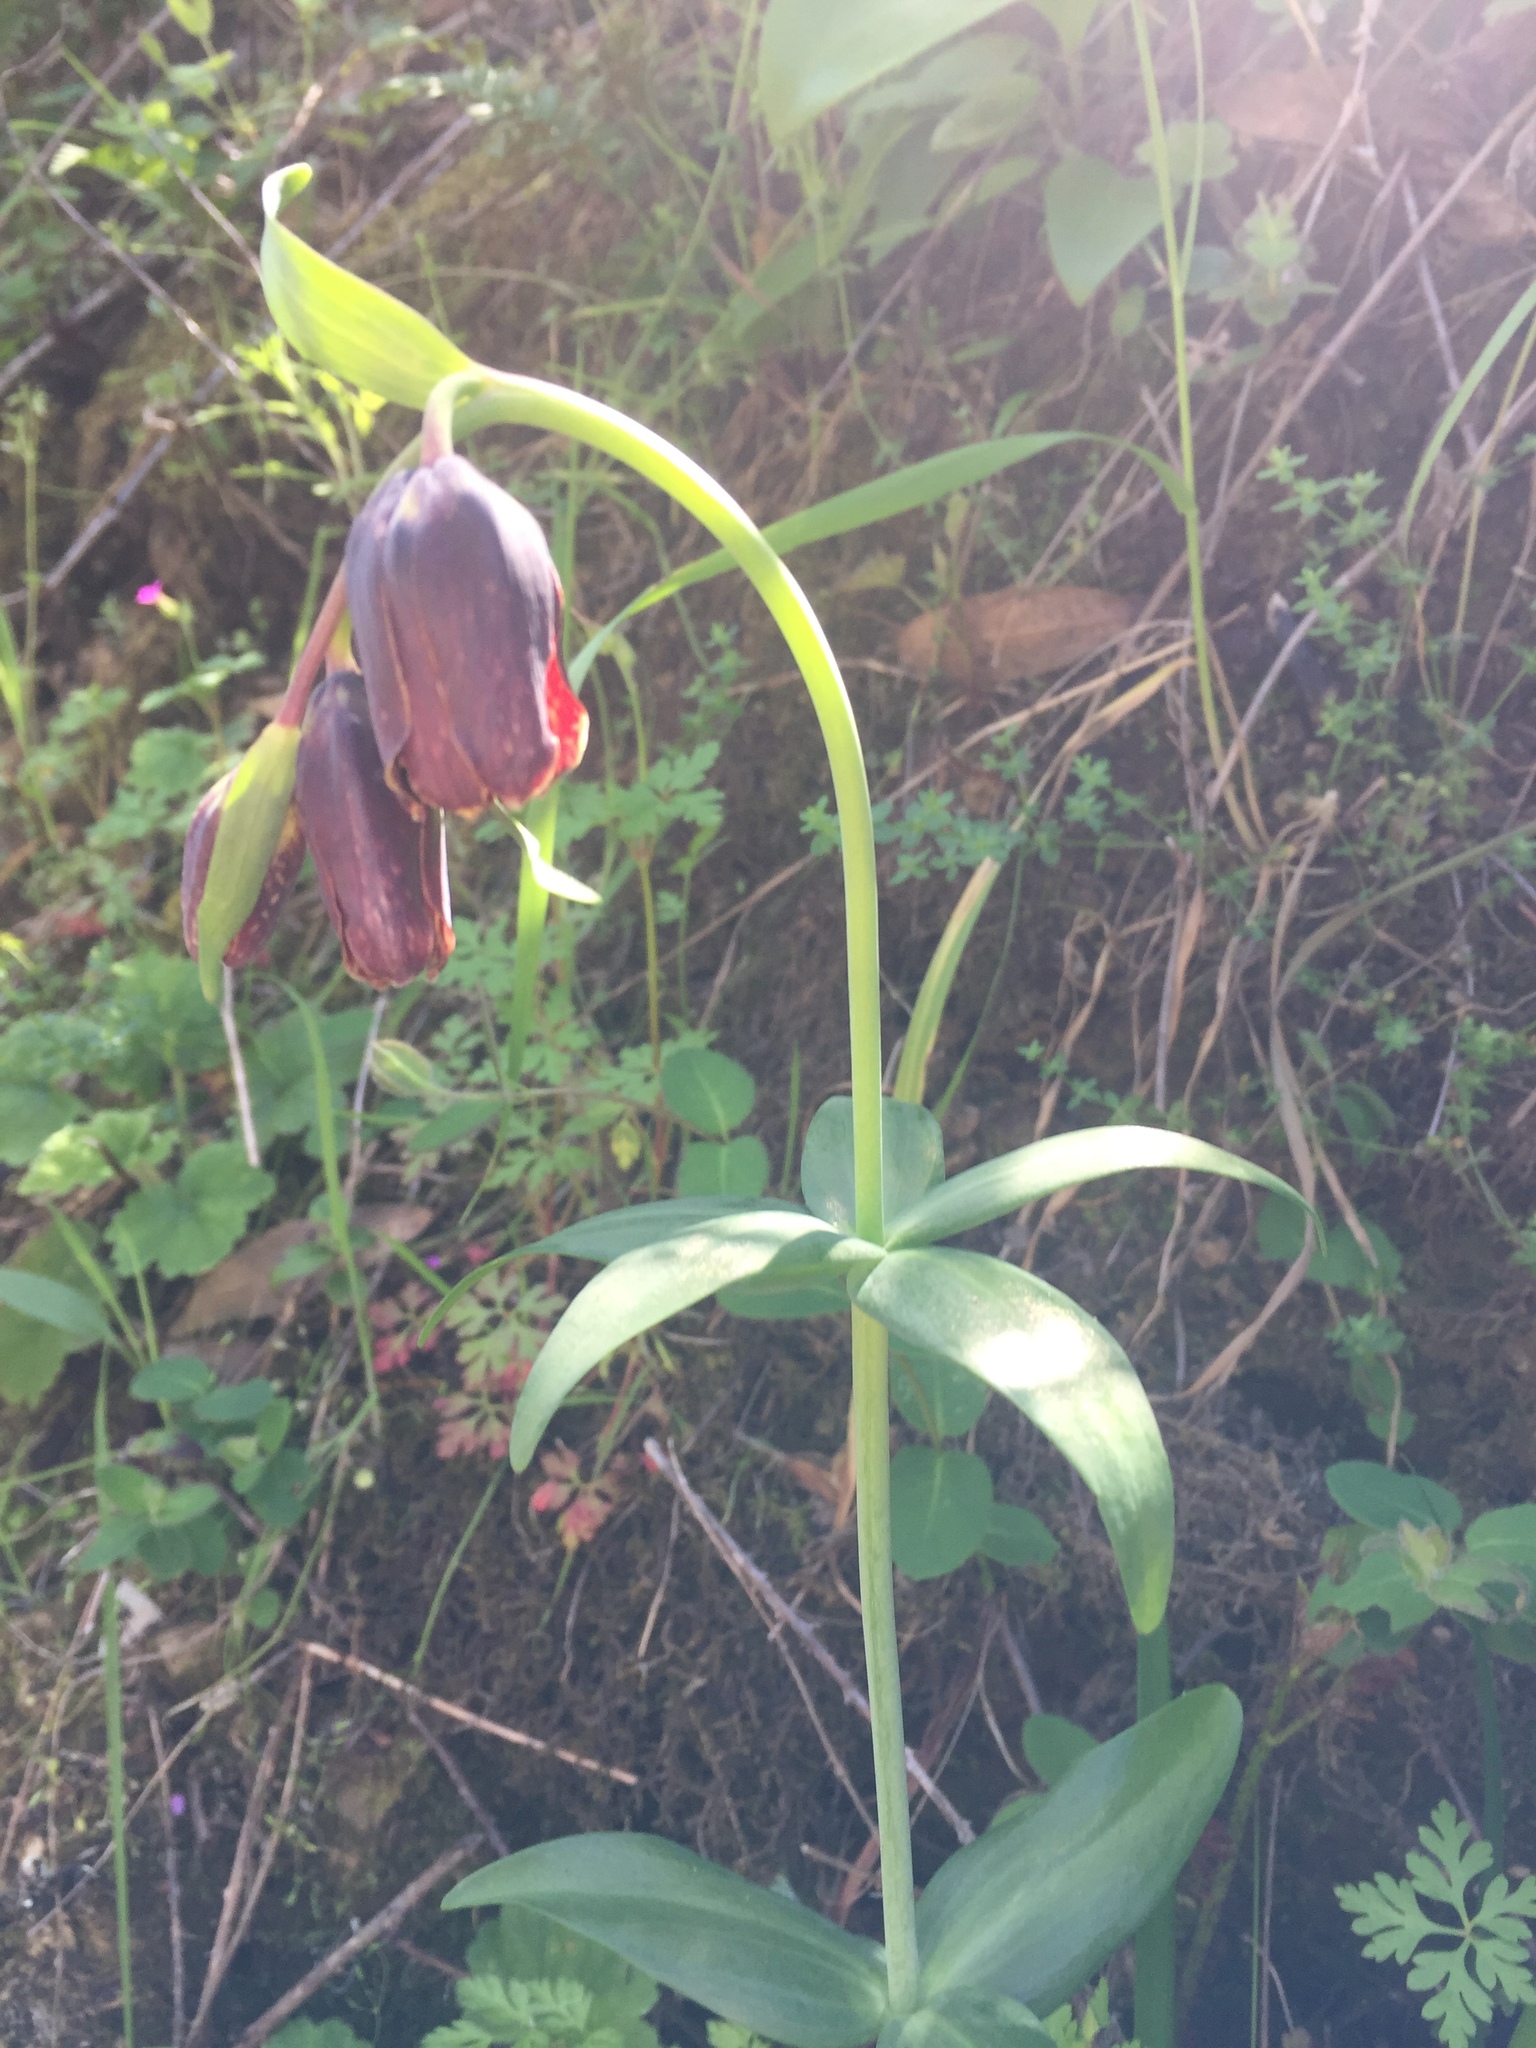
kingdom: Plantae
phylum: Tracheophyta
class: Liliopsida
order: Liliales
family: Liliaceae
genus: Fritillaria
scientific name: Fritillaria affinis
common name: Ojai fritillary
